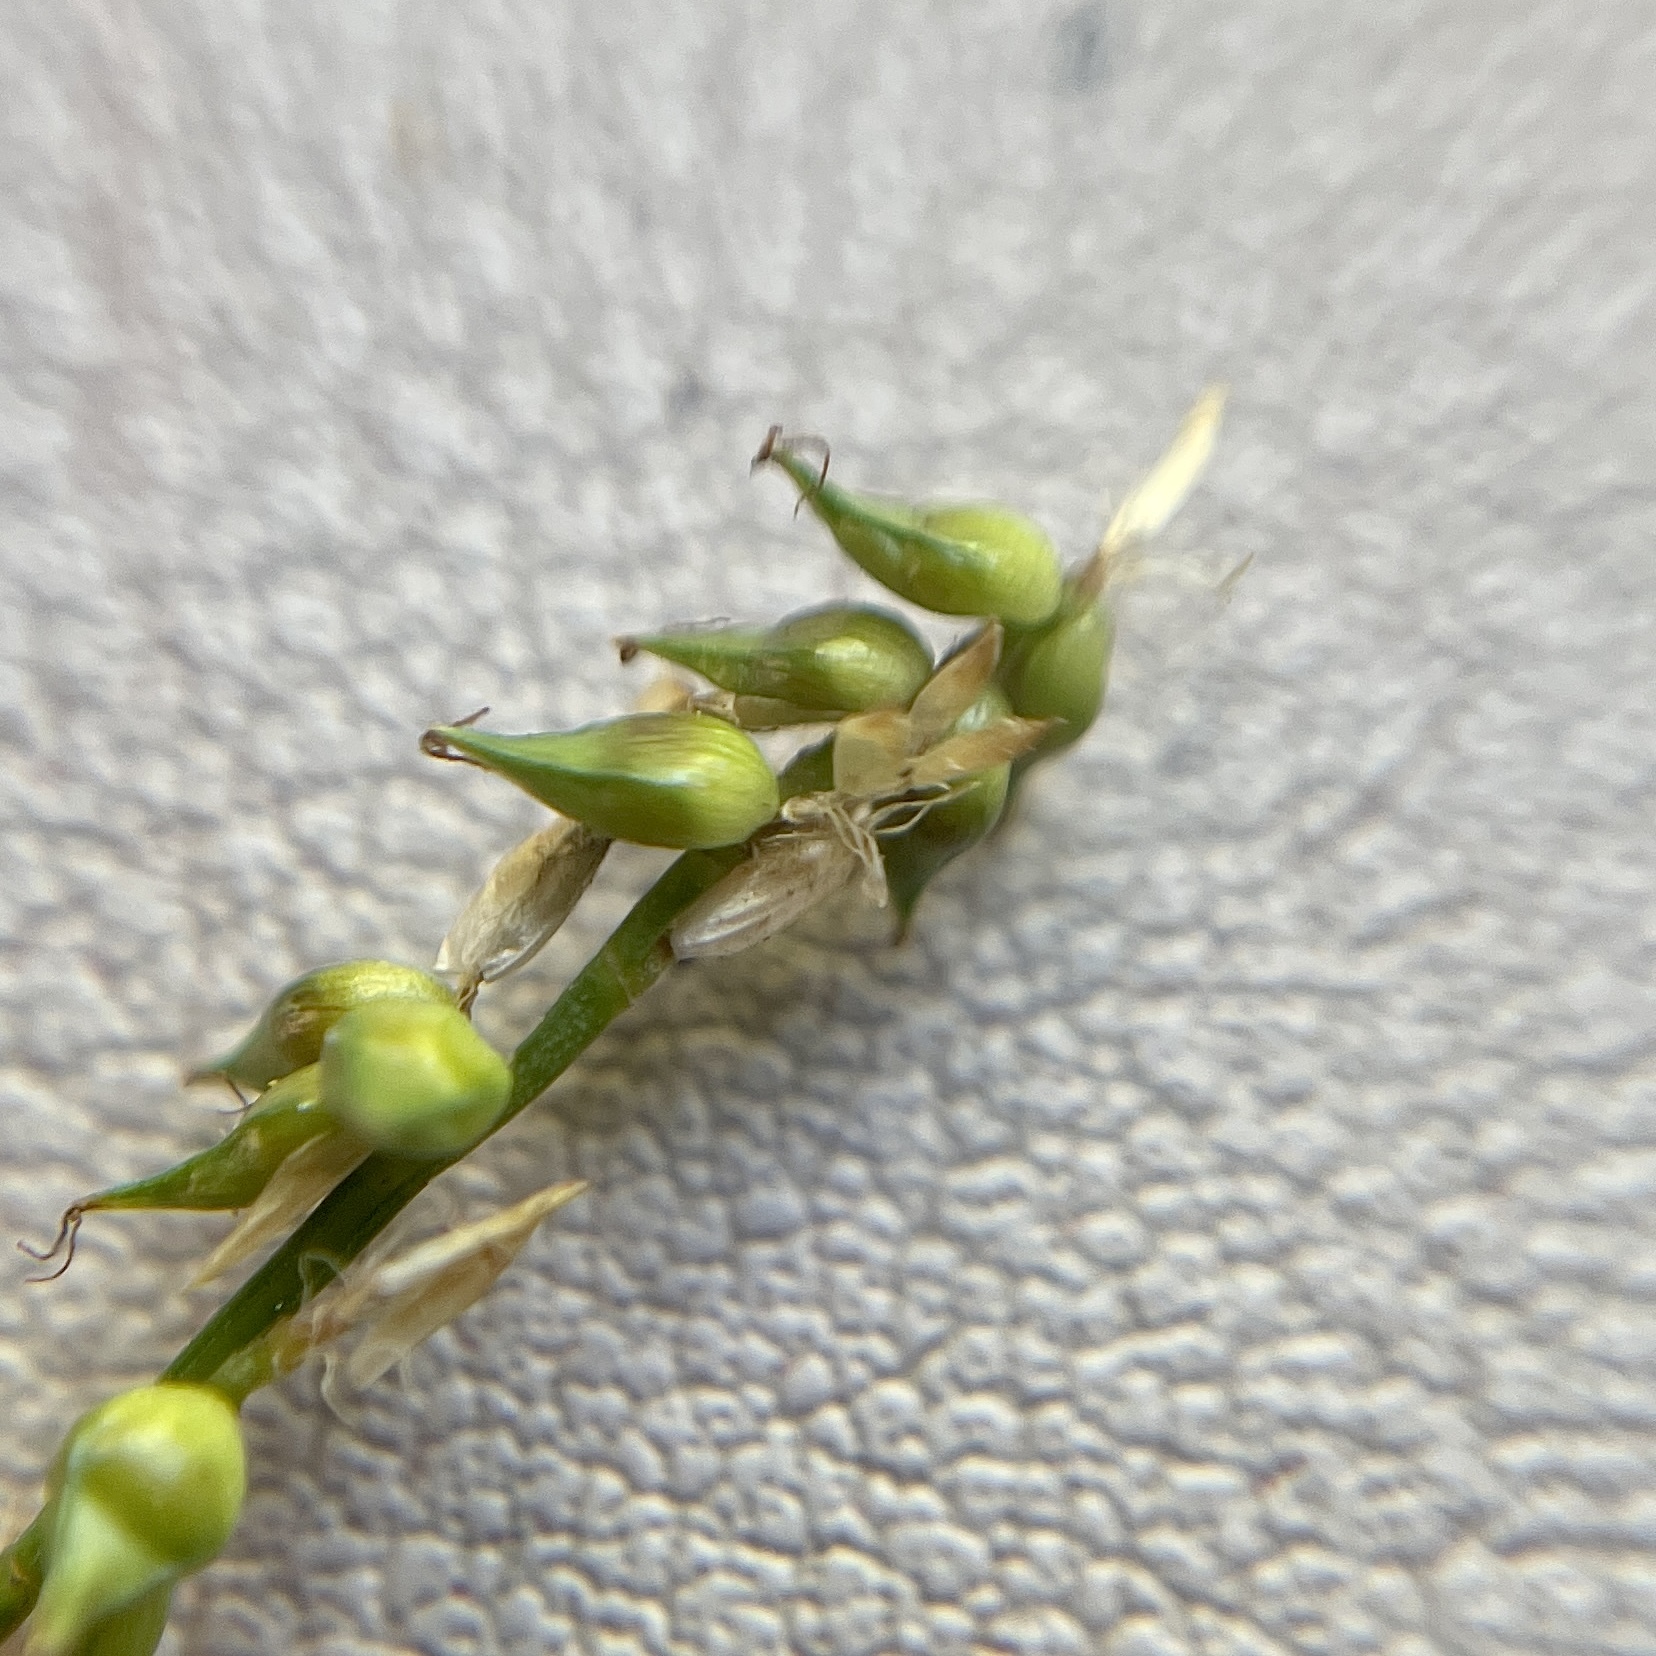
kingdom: Plantae
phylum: Tracheophyta
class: Liliopsida
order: Poales
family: Cyperaceae
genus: Carex
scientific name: Carex retroflexa
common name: Reflexed sedge
